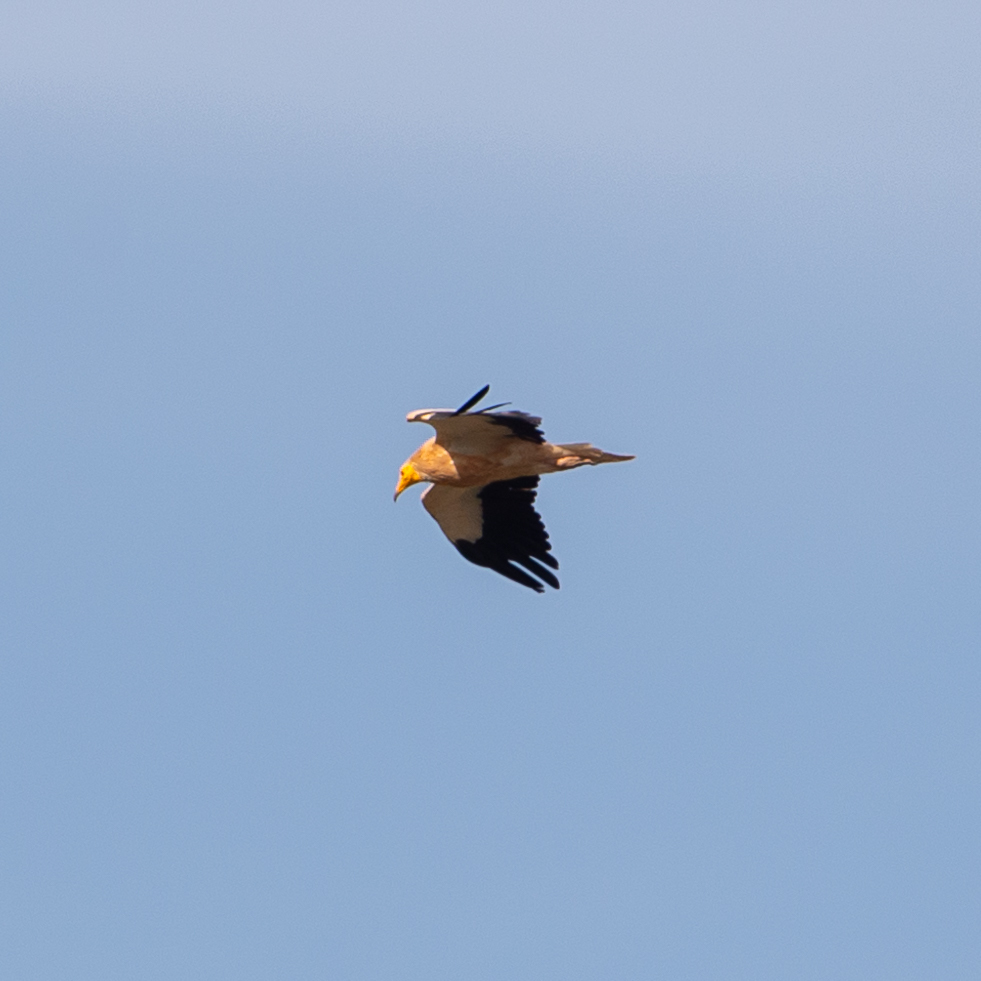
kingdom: Animalia
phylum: Chordata
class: Aves
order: Accipitriformes
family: Accipitridae
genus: Neophron
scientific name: Neophron percnopterus
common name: Egyptian vulture
